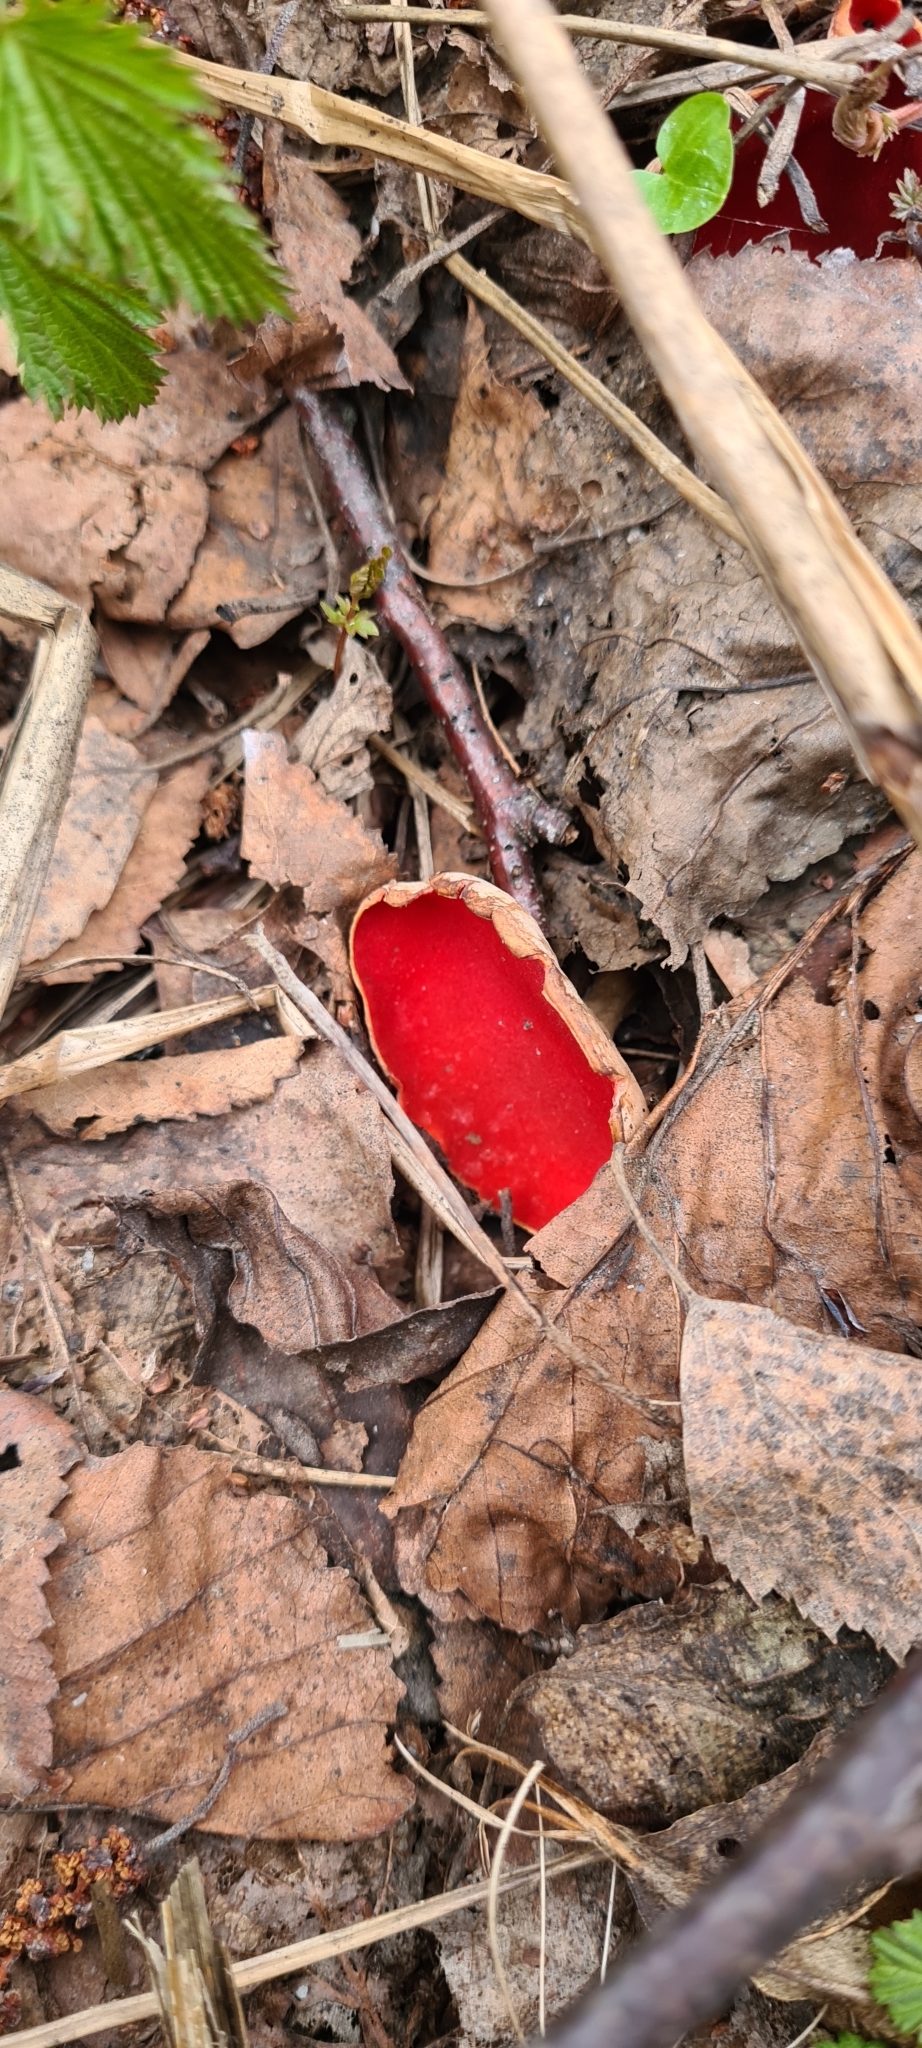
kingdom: Fungi
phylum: Ascomycota
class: Pezizomycetes
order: Pezizales
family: Sarcoscyphaceae
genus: Sarcoscypha
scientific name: Sarcoscypha austriaca
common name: Scarlet elfcup
